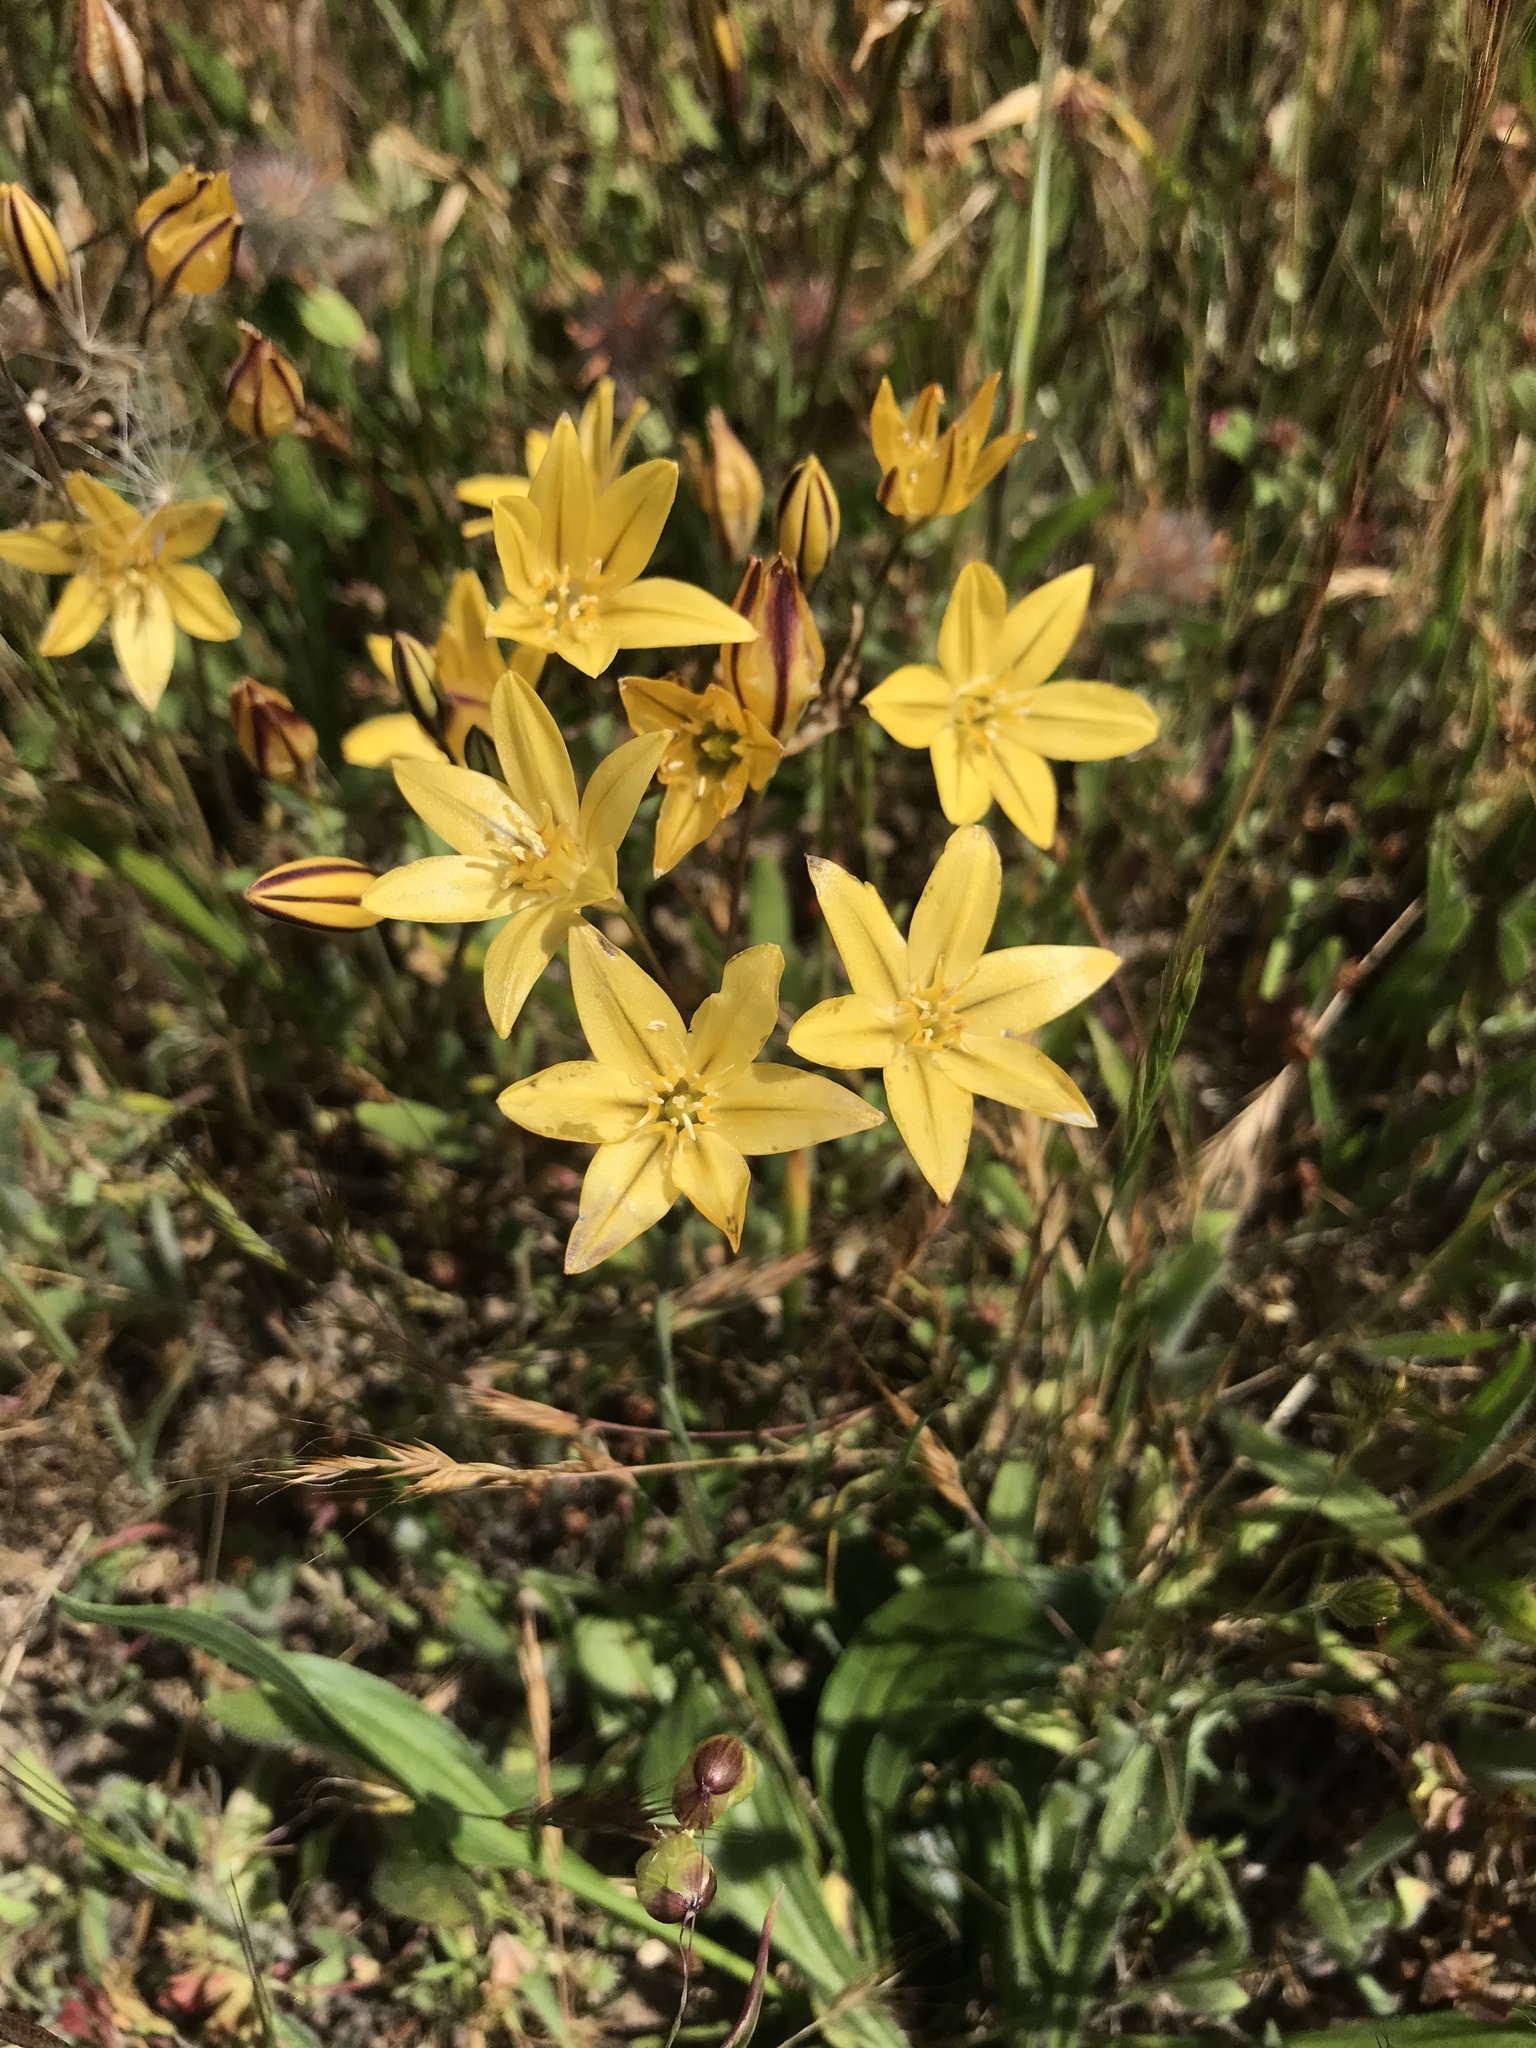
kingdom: Plantae
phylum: Tracheophyta
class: Liliopsida
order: Asparagales
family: Asparagaceae
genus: Triteleia
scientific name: Triteleia ixioides
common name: Yellow-brodiaea
